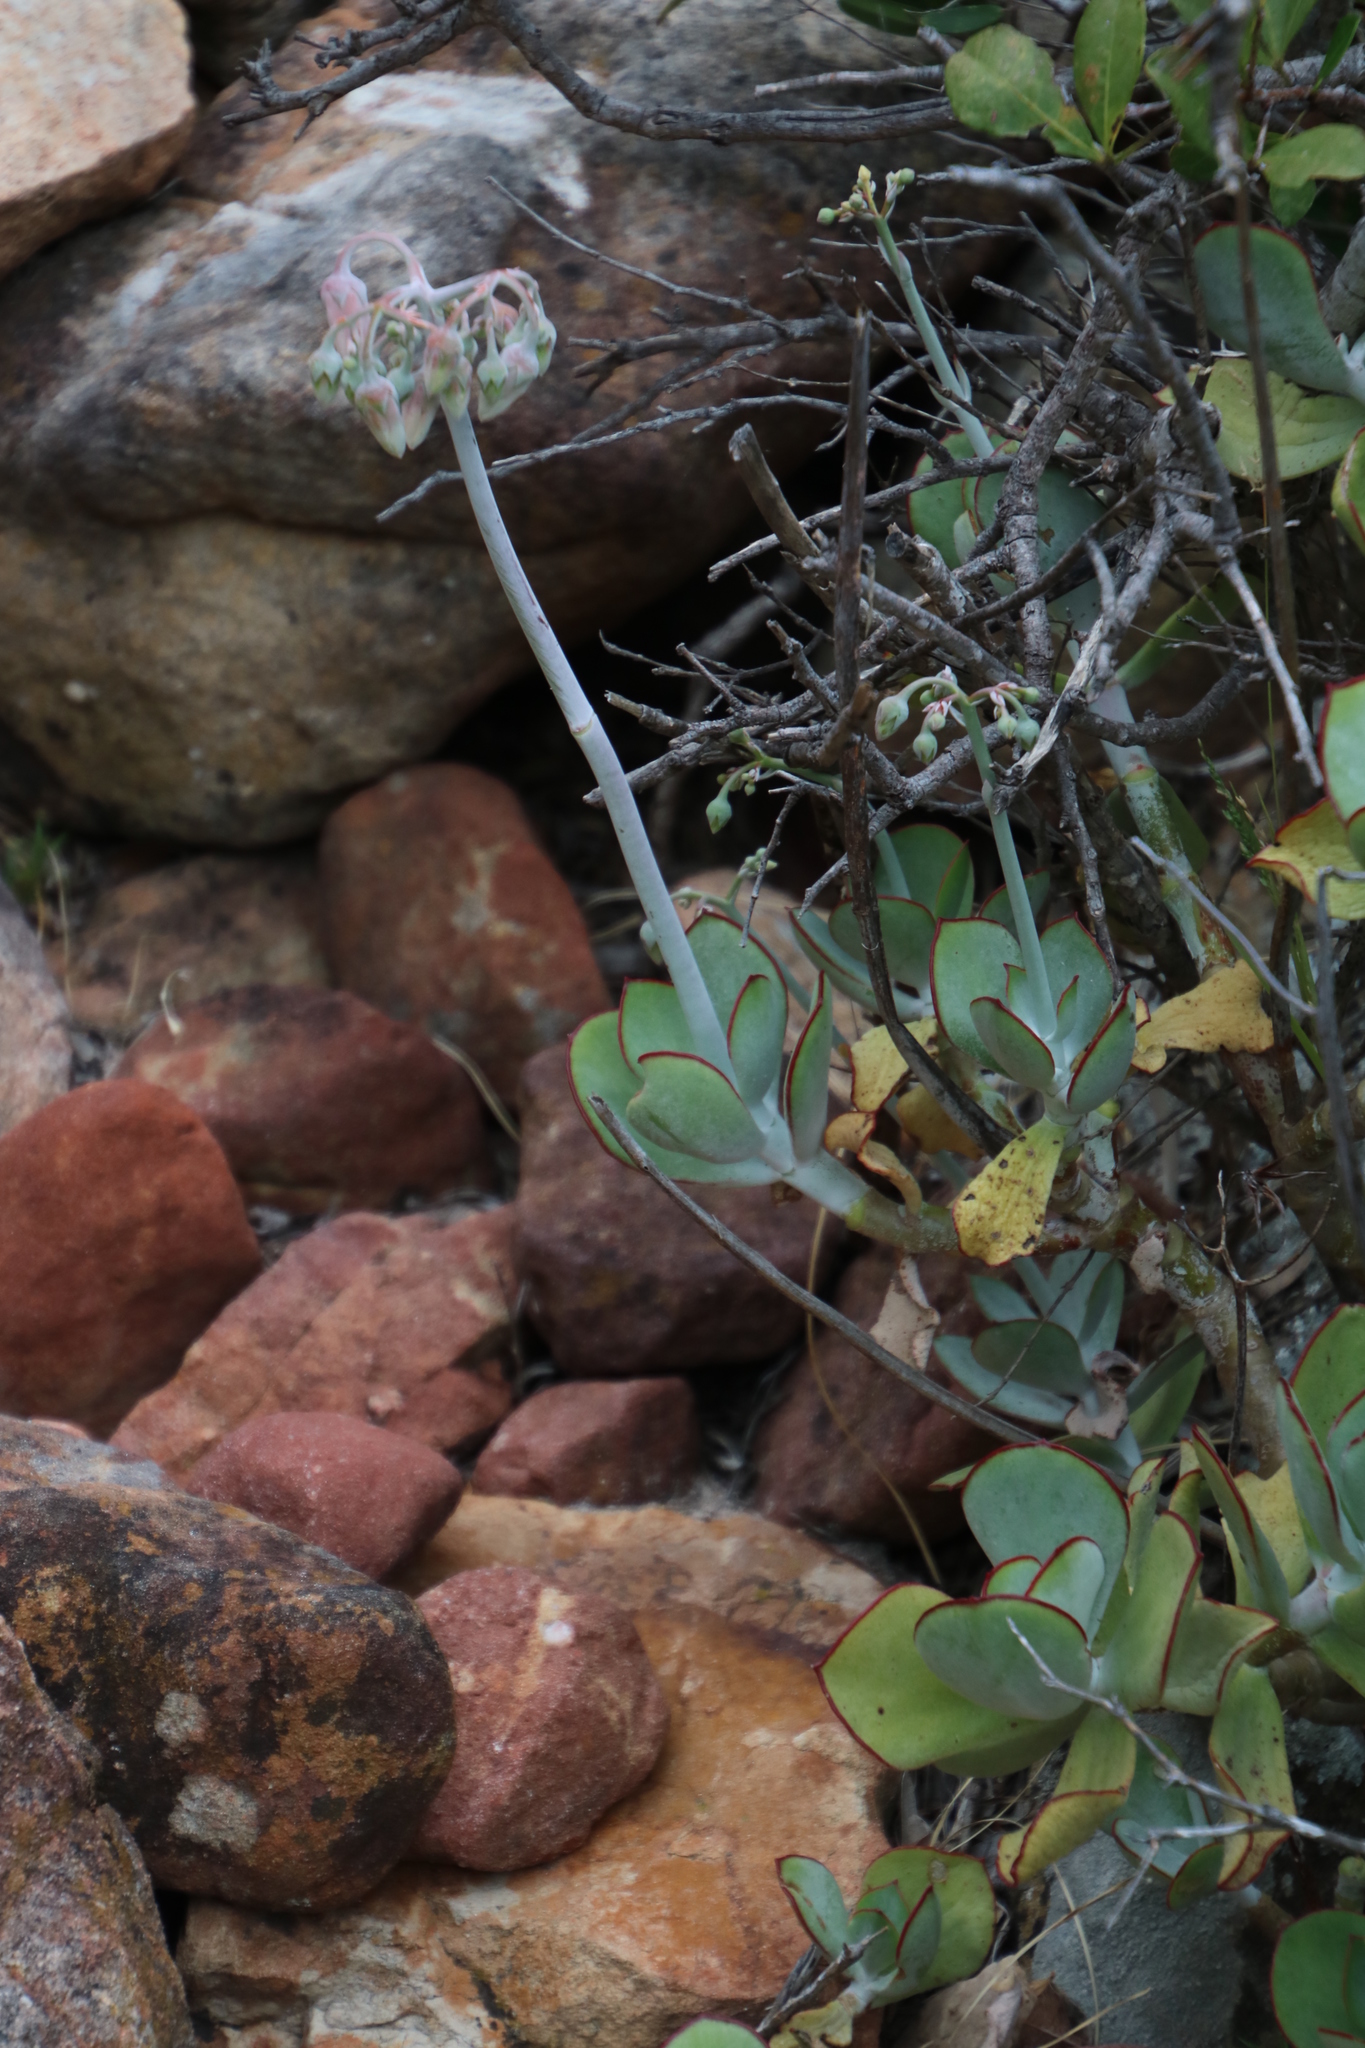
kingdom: Plantae
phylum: Tracheophyta
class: Magnoliopsida
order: Saxifragales
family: Crassulaceae
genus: Cotyledon
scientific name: Cotyledon orbiculata
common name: Pig's ear
